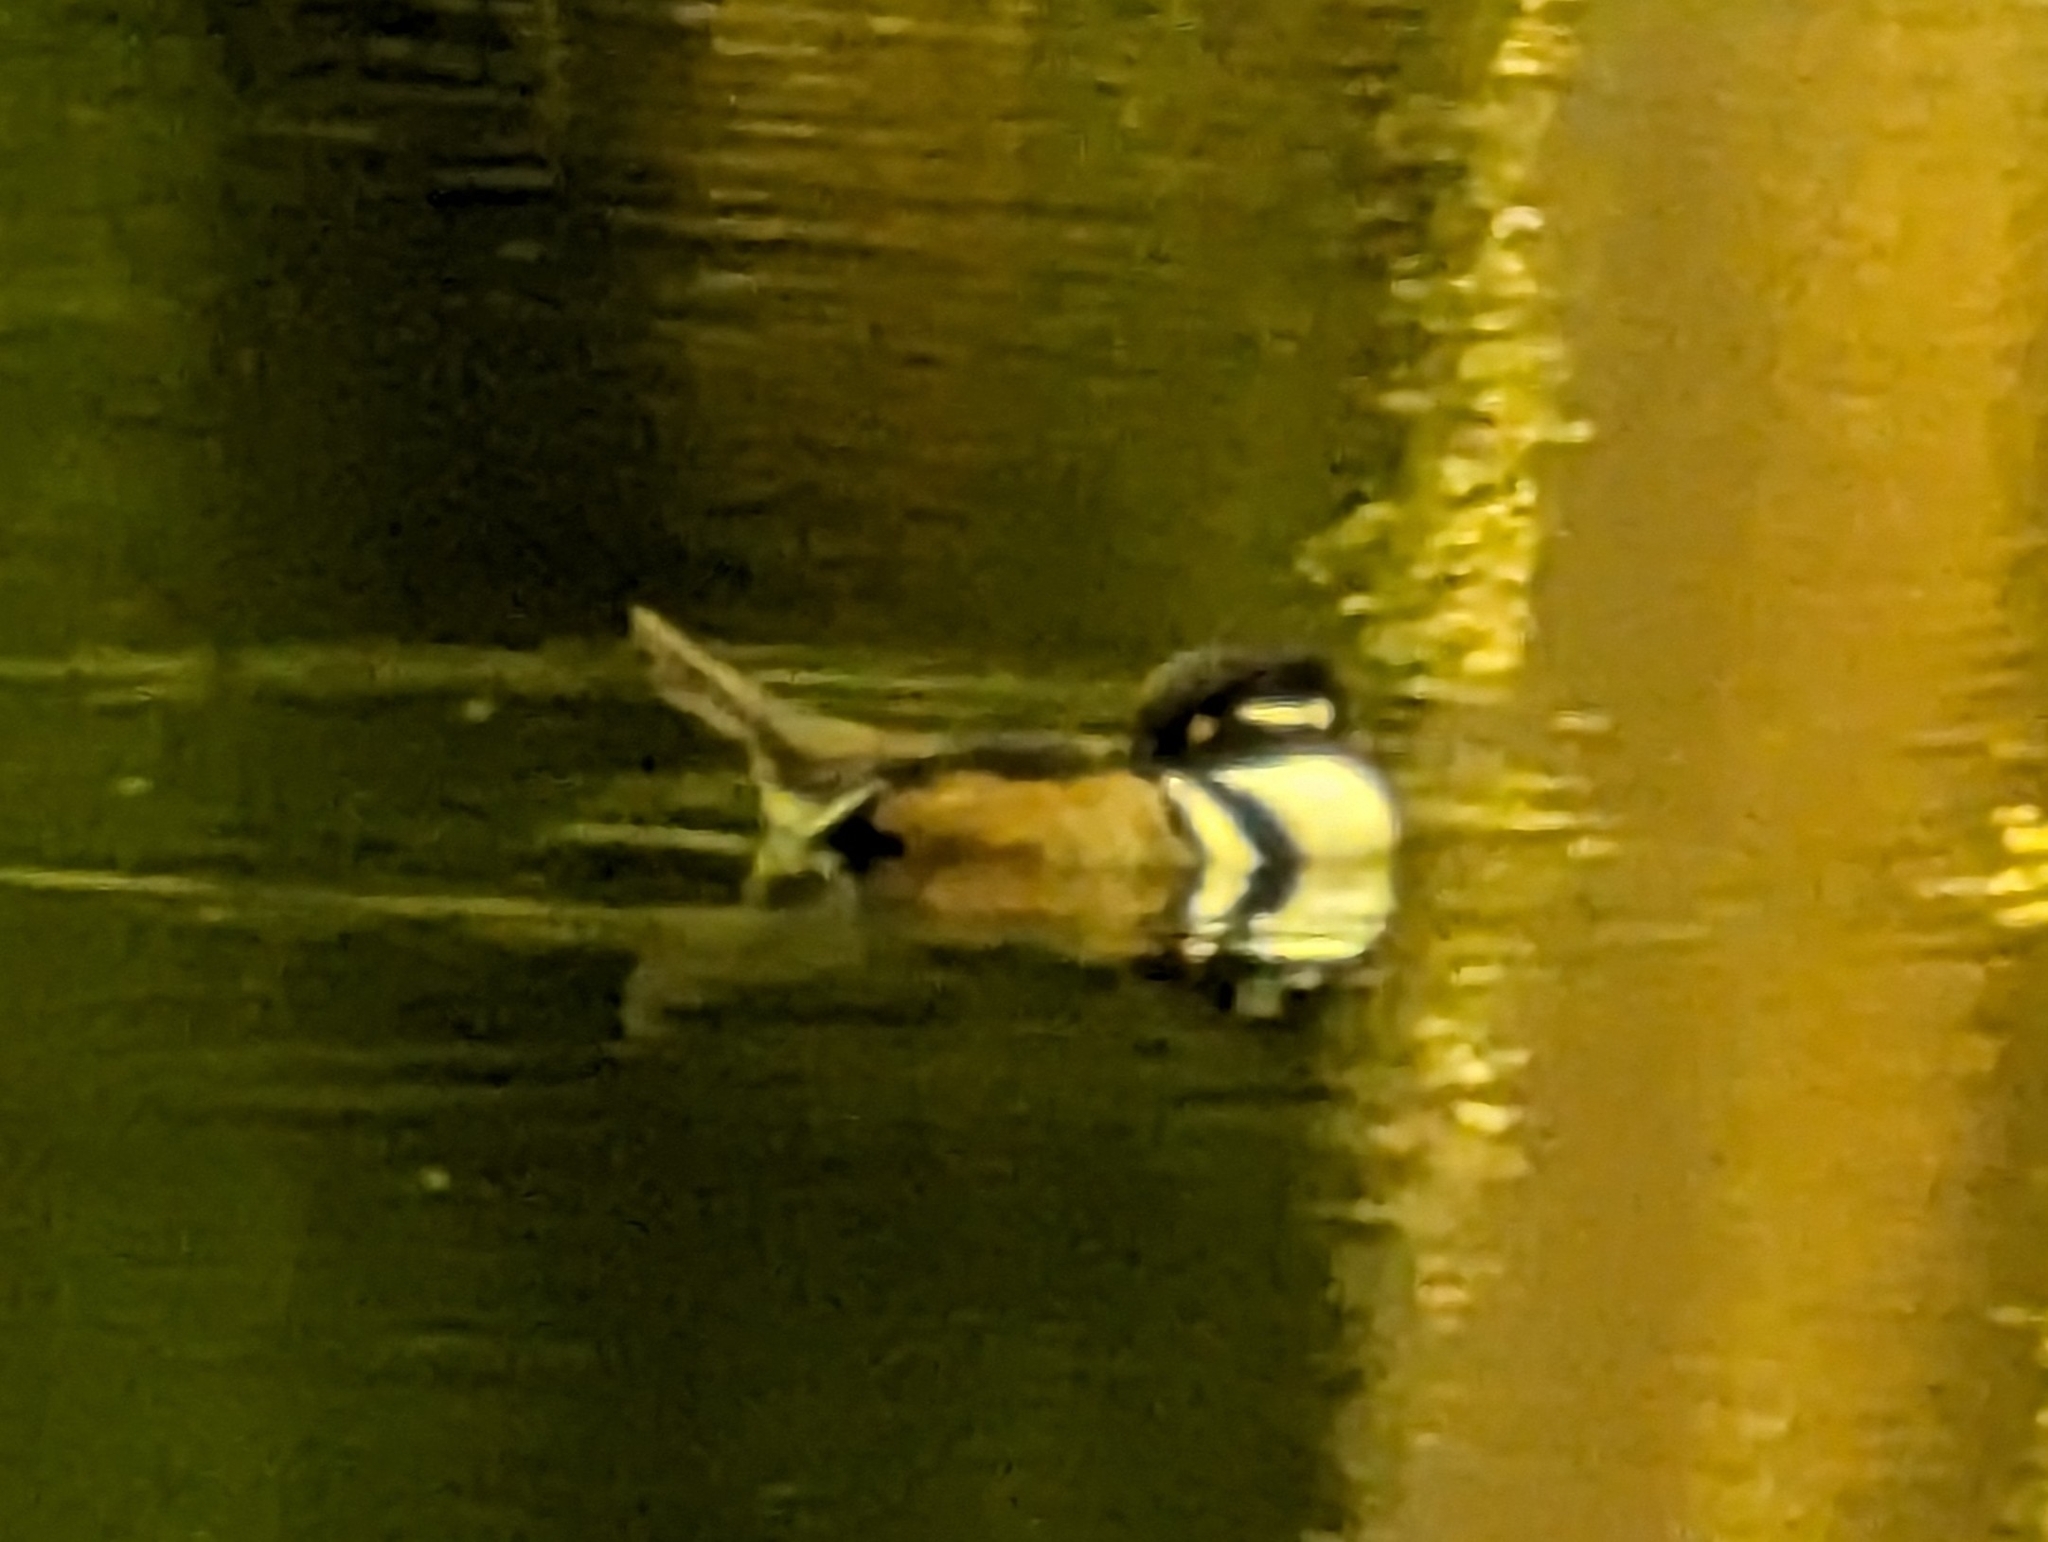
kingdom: Animalia
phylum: Chordata
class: Aves
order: Anseriformes
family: Anatidae
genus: Lophodytes
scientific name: Lophodytes cucullatus
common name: Hooded merganser
